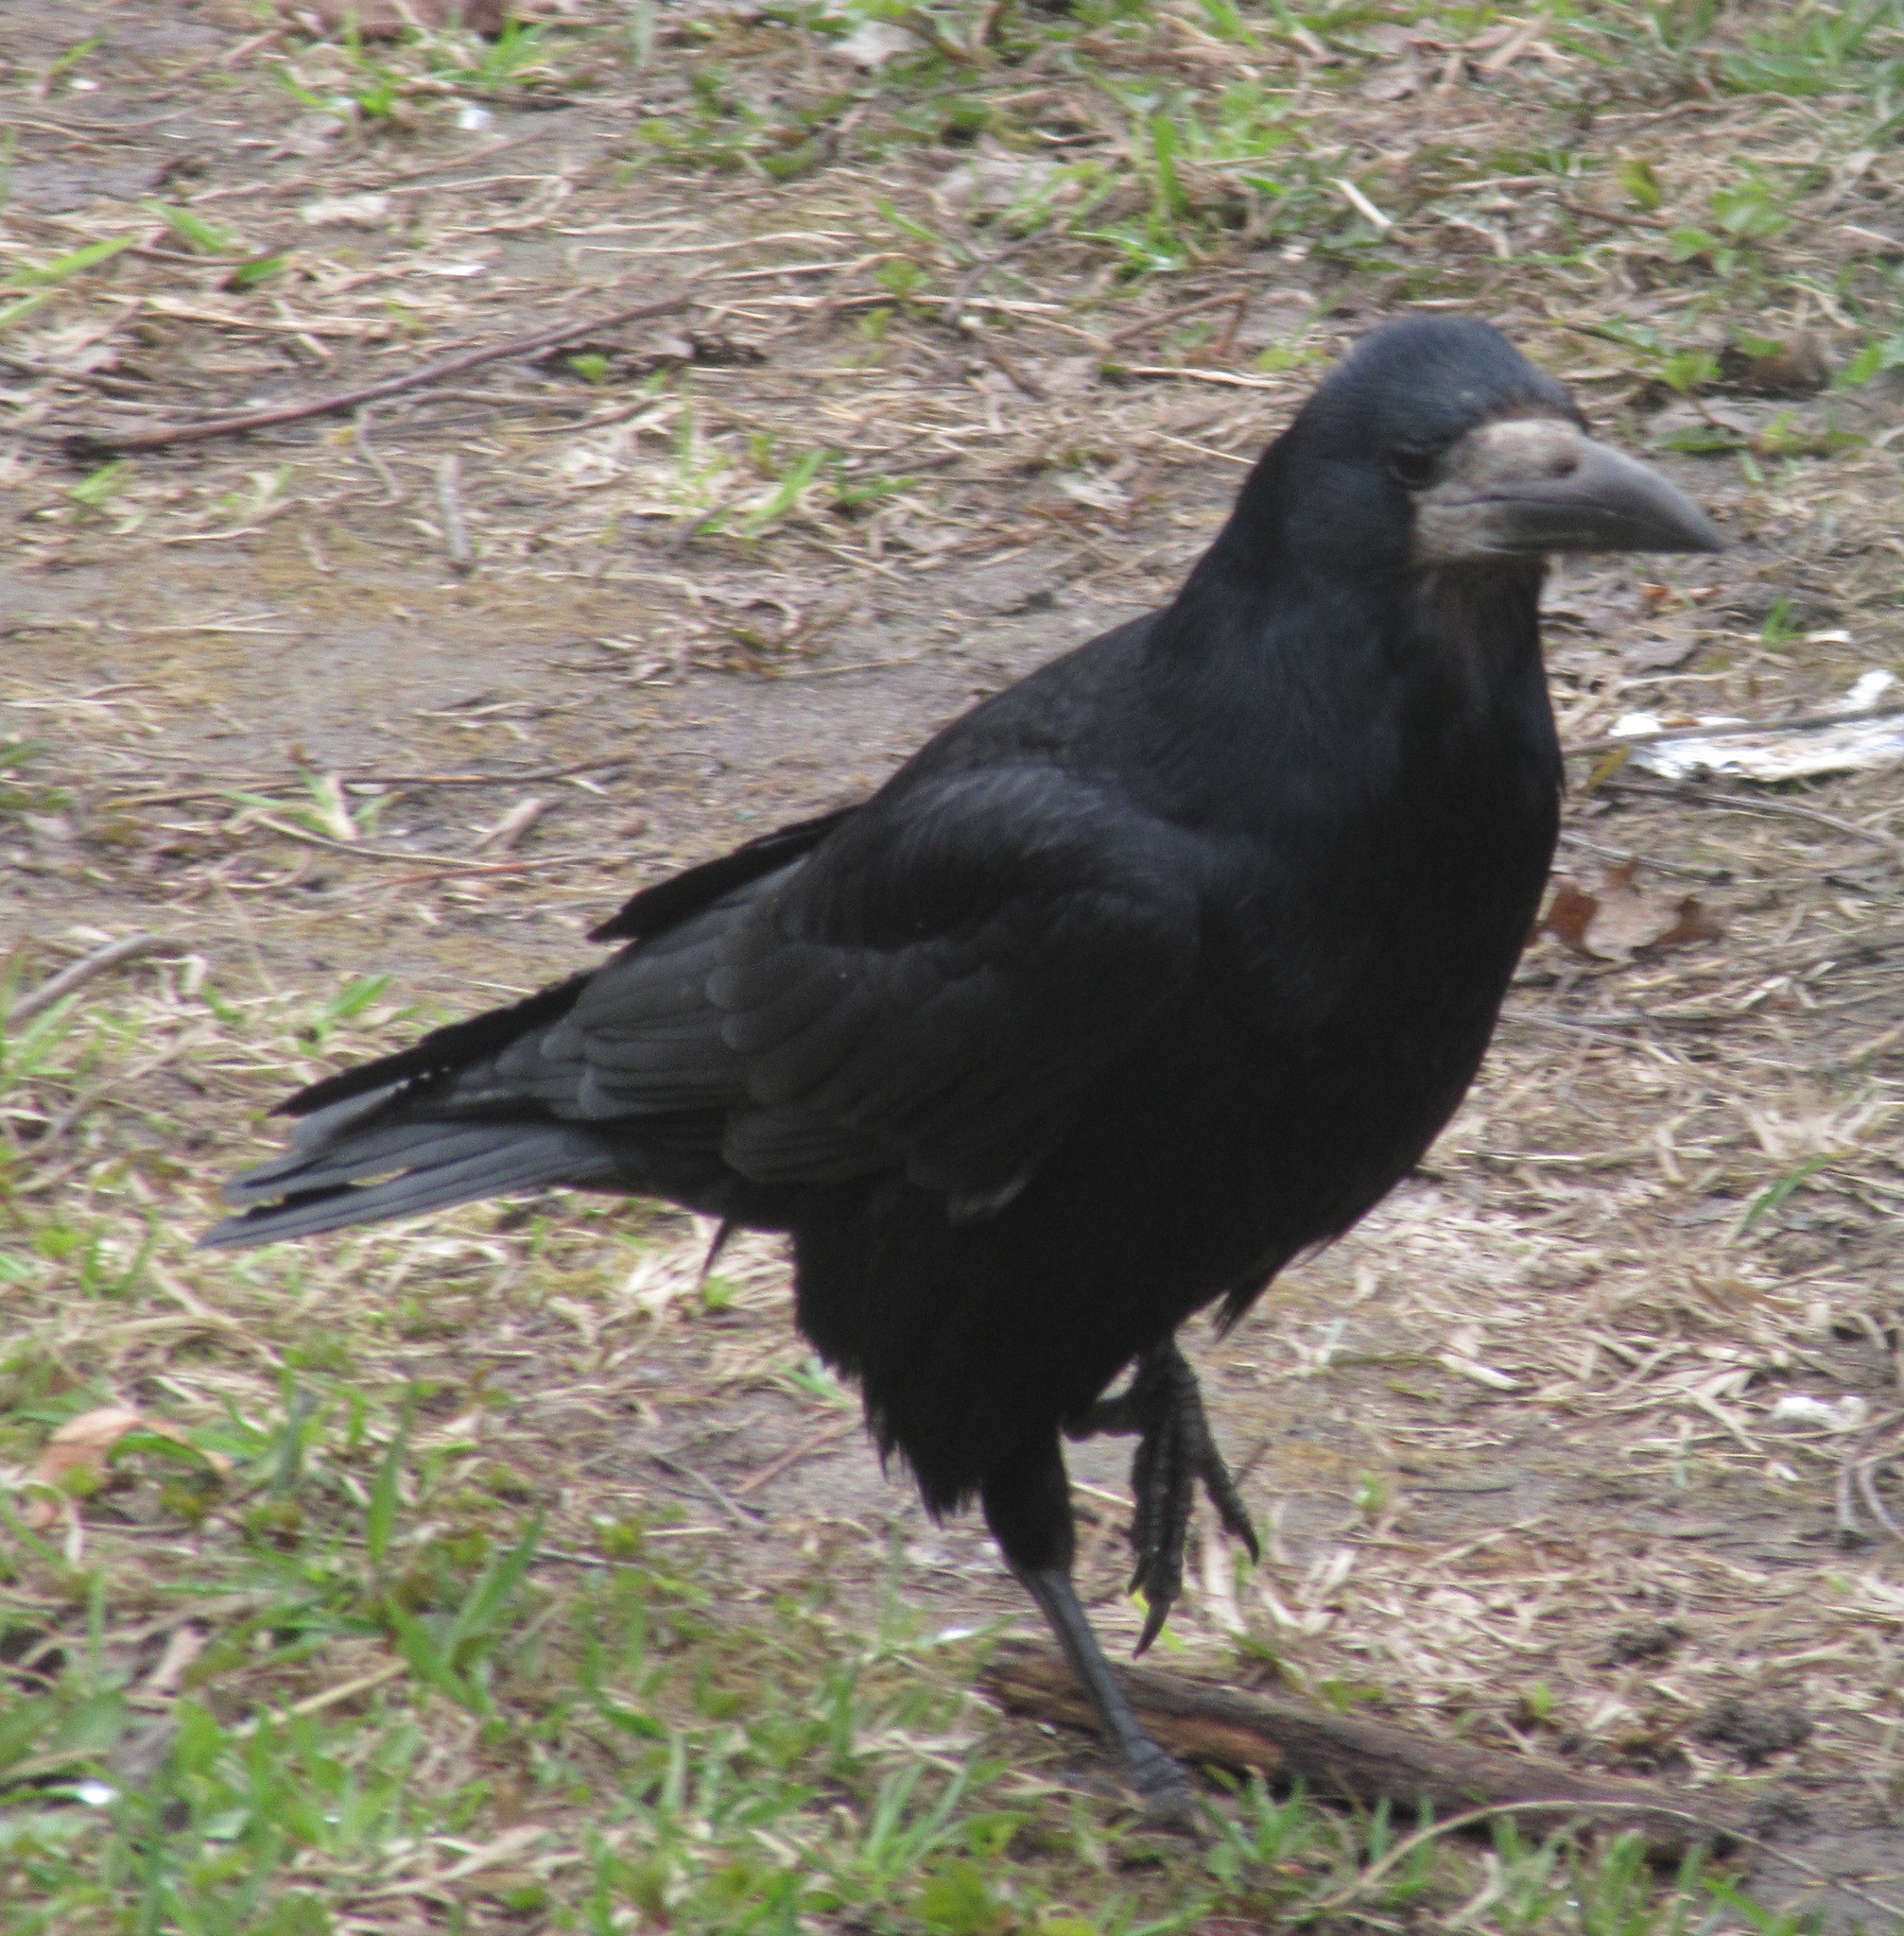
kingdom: Animalia
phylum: Chordata
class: Aves
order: Passeriformes
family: Corvidae
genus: Corvus
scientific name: Corvus frugilegus
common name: Rook
